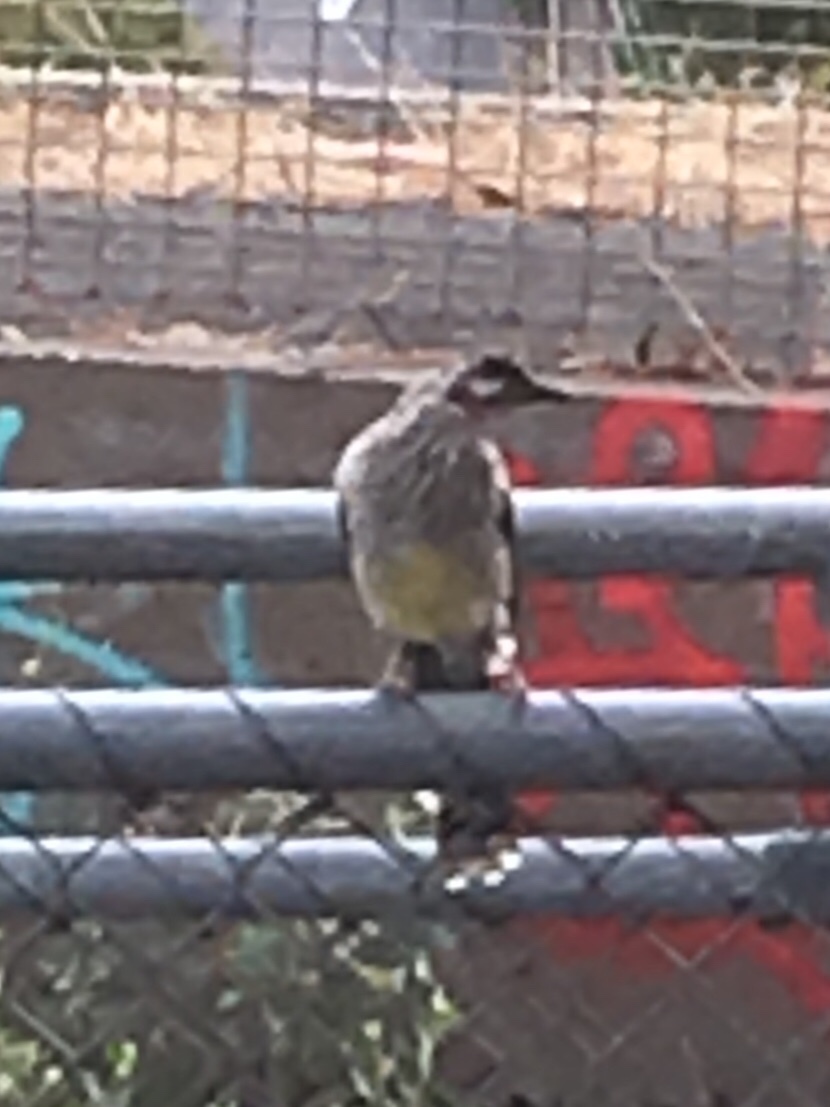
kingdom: Animalia
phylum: Chordata
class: Aves
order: Passeriformes
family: Meliphagidae
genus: Anthochaera
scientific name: Anthochaera carunculata
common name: Red wattlebird
